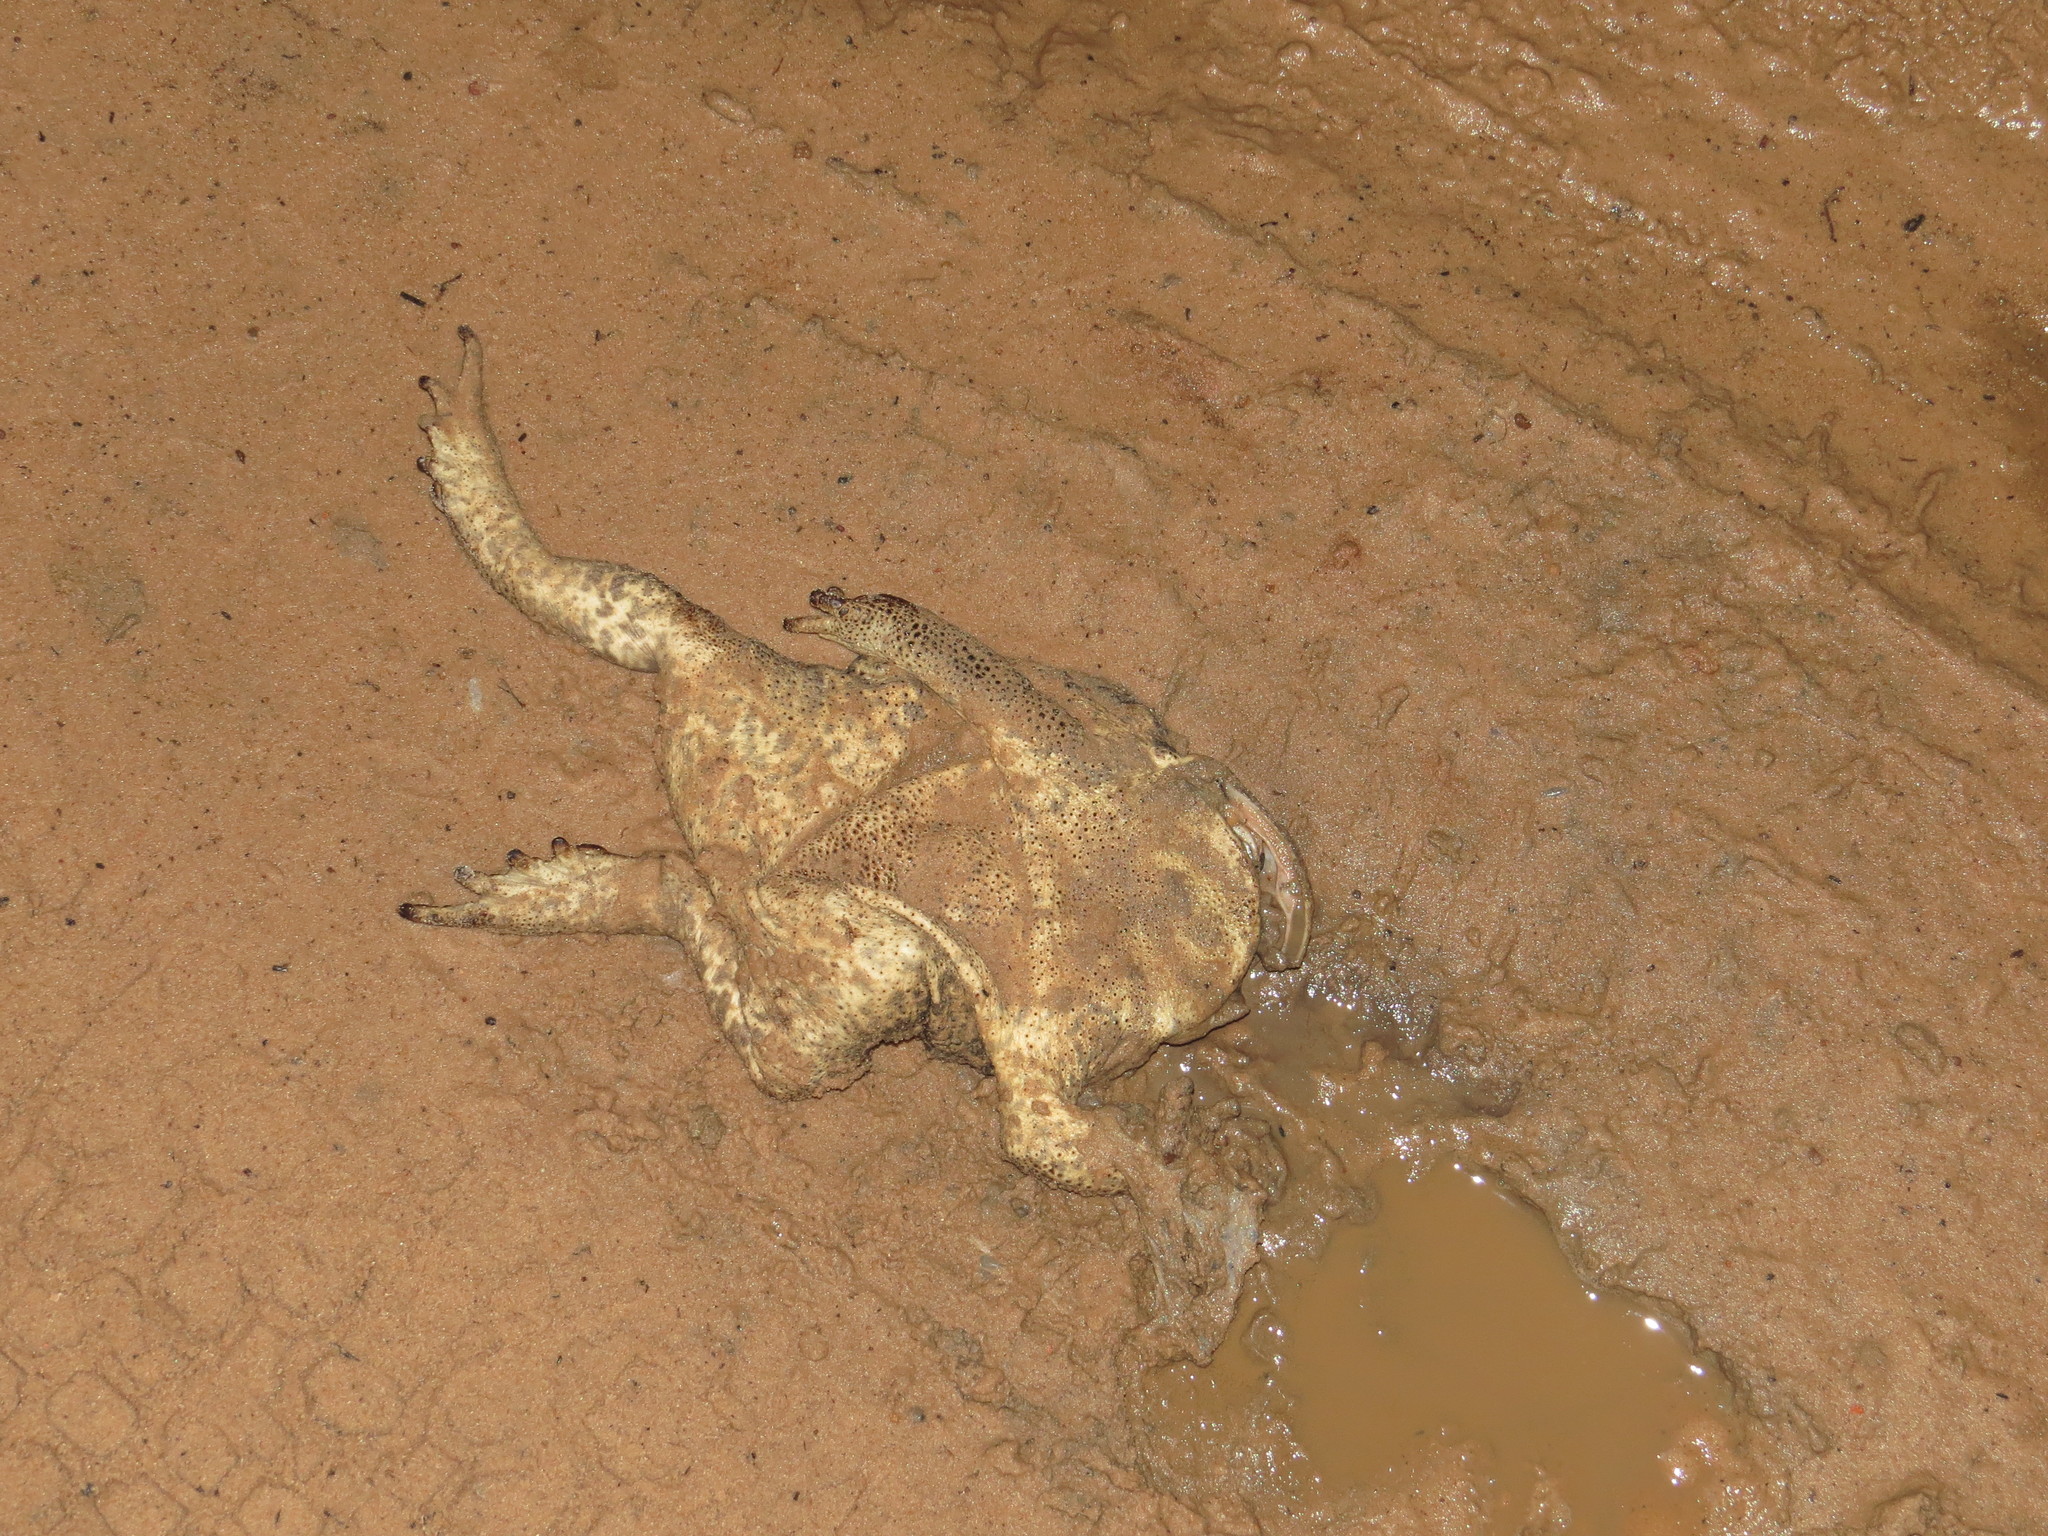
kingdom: Animalia
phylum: Chordata
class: Amphibia
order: Anura
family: Bufonidae
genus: Rhinella
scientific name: Rhinella diptycha
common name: Cope's toad
